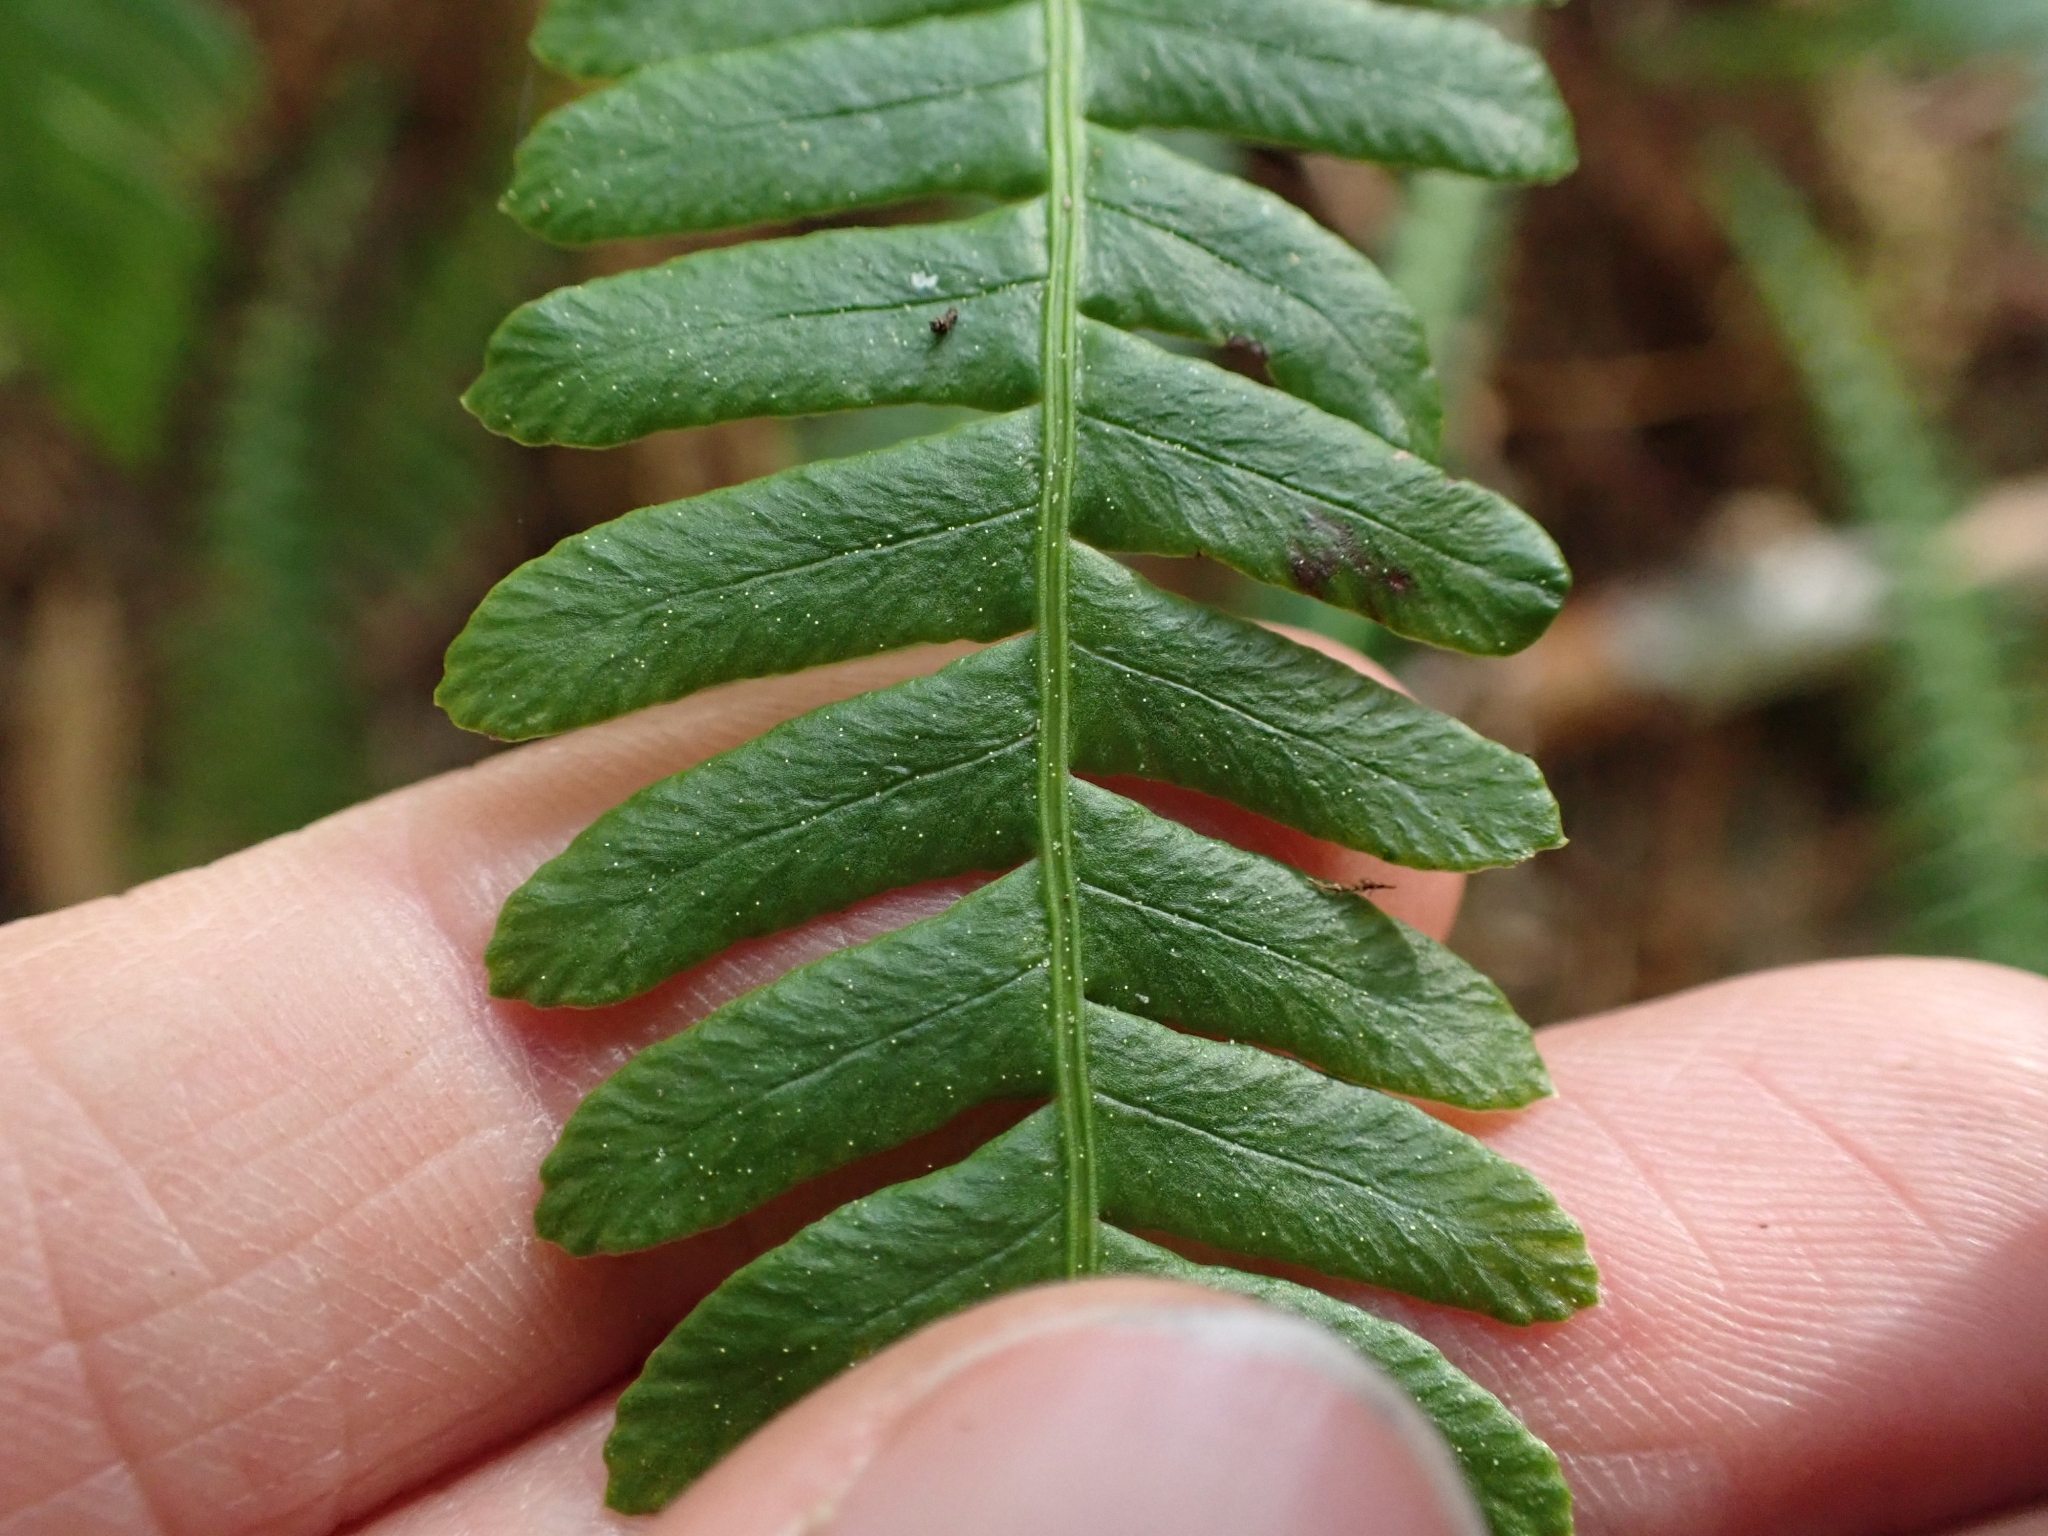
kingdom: Plantae
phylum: Tracheophyta
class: Polypodiopsida
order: Polypodiales
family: Blechnaceae
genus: Struthiopteris
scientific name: Struthiopteris spicant
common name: Deer fern
